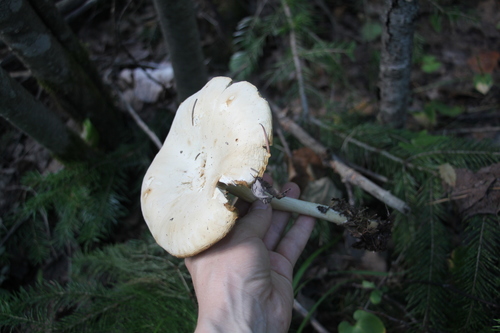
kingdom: Fungi
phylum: Basidiomycota
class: Agaricomycetes
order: Agaricales
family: Tricholomataceae
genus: Melanoleuca
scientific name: Melanoleuca strictipes
